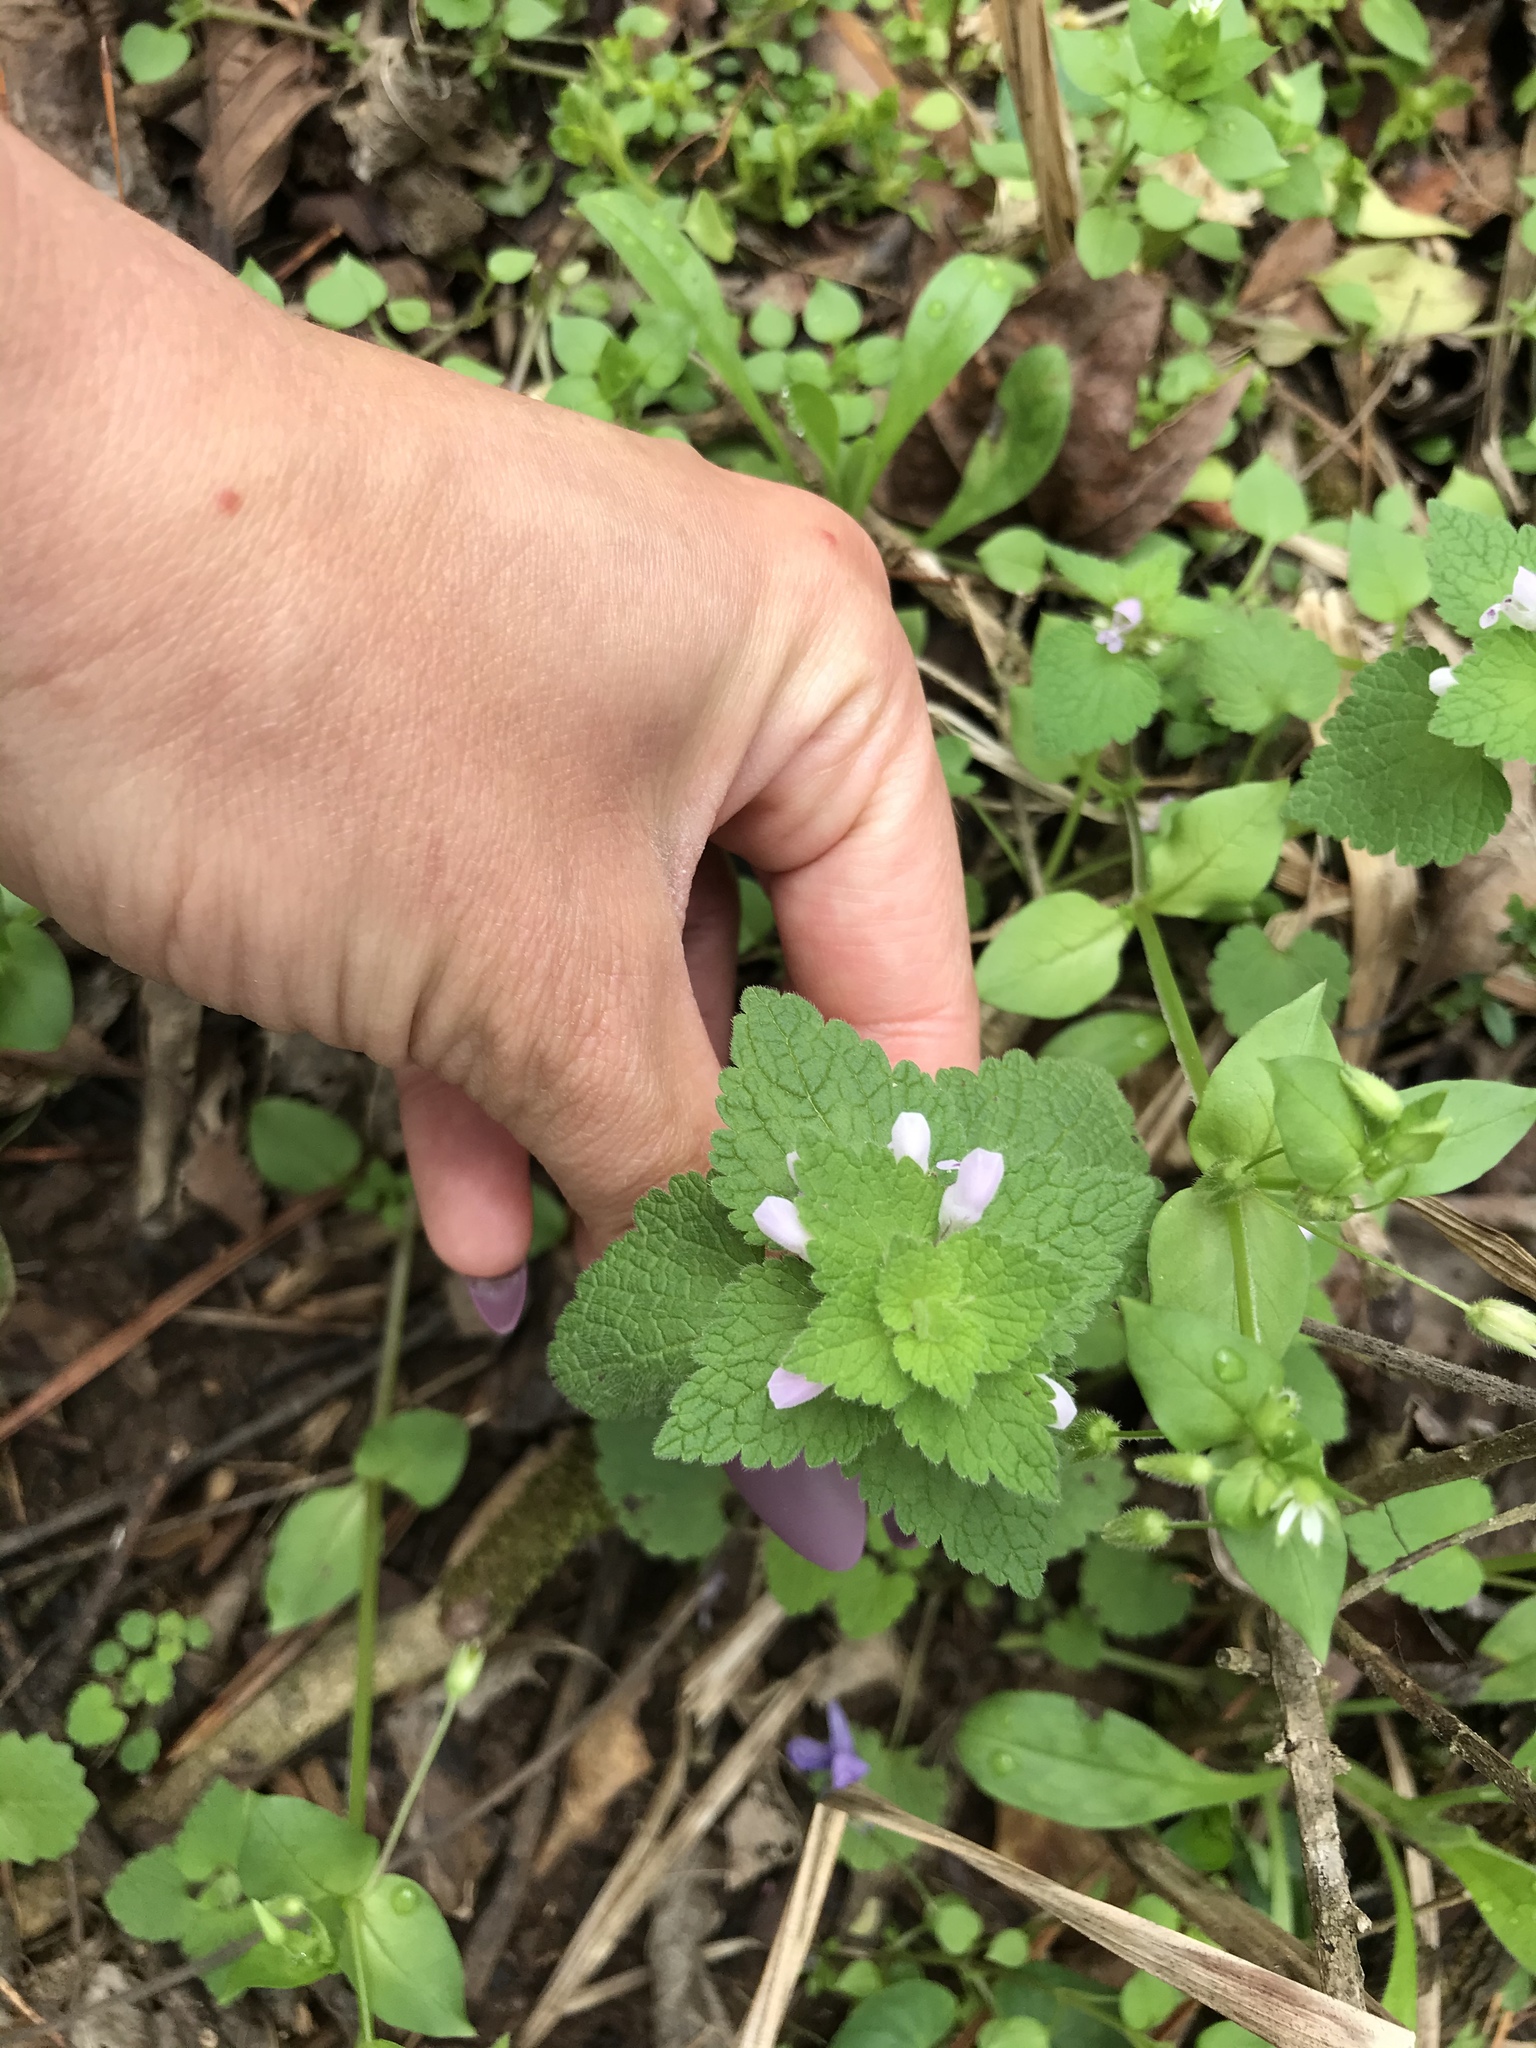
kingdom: Plantae
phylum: Tracheophyta
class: Magnoliopsida
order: Lamiales
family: Lamiaceae
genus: Lamium
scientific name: Lamium purpureum
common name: Red dead-nettle
